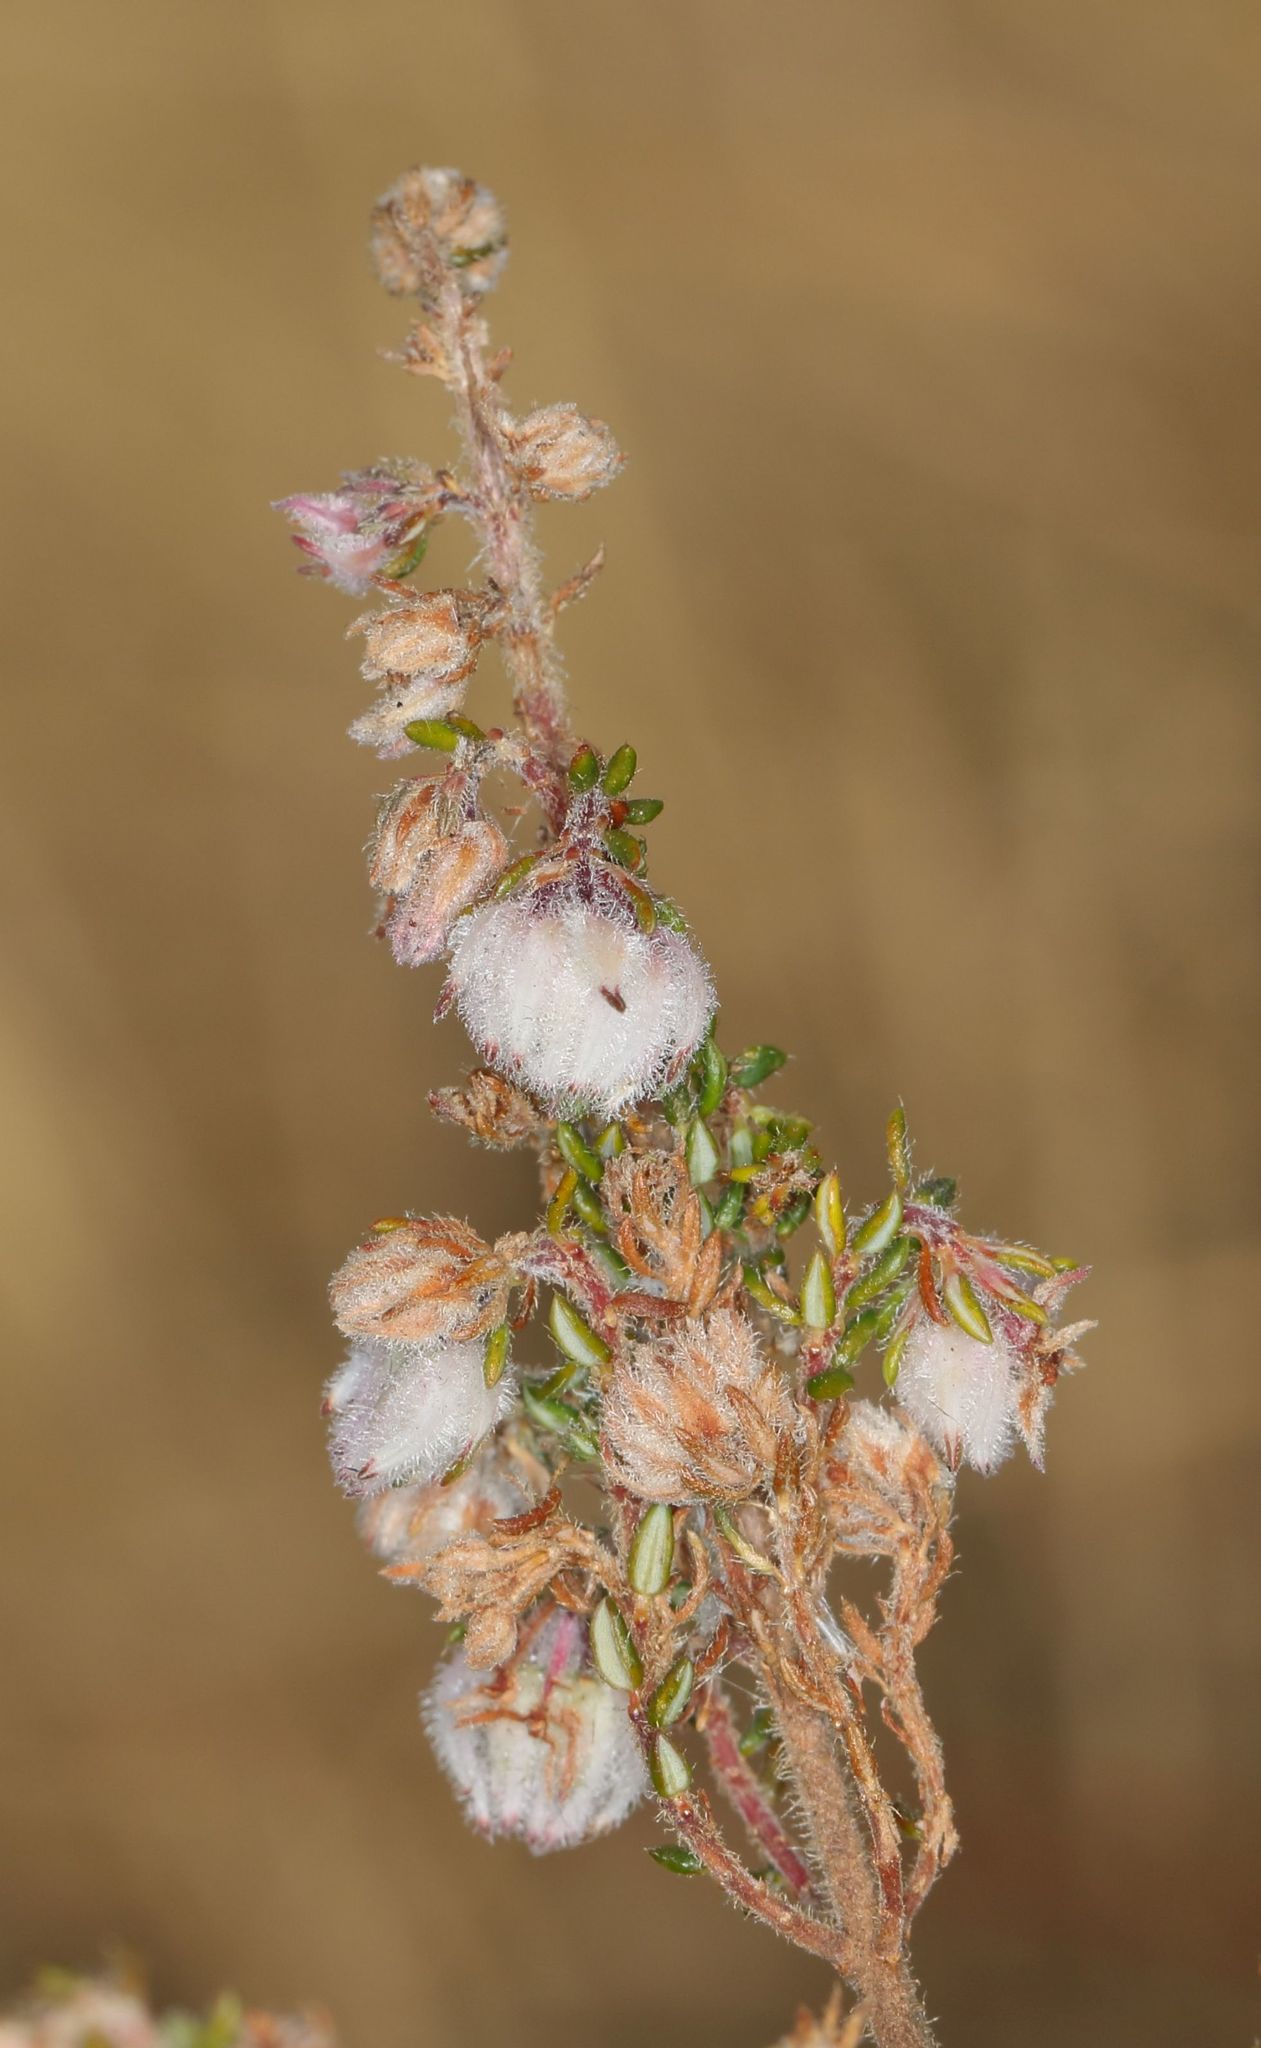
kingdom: Plantae
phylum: Tracheophyta
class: Magnoliopsida
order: Ericales
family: Ericaceae
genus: Erica
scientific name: Erica cooperi
